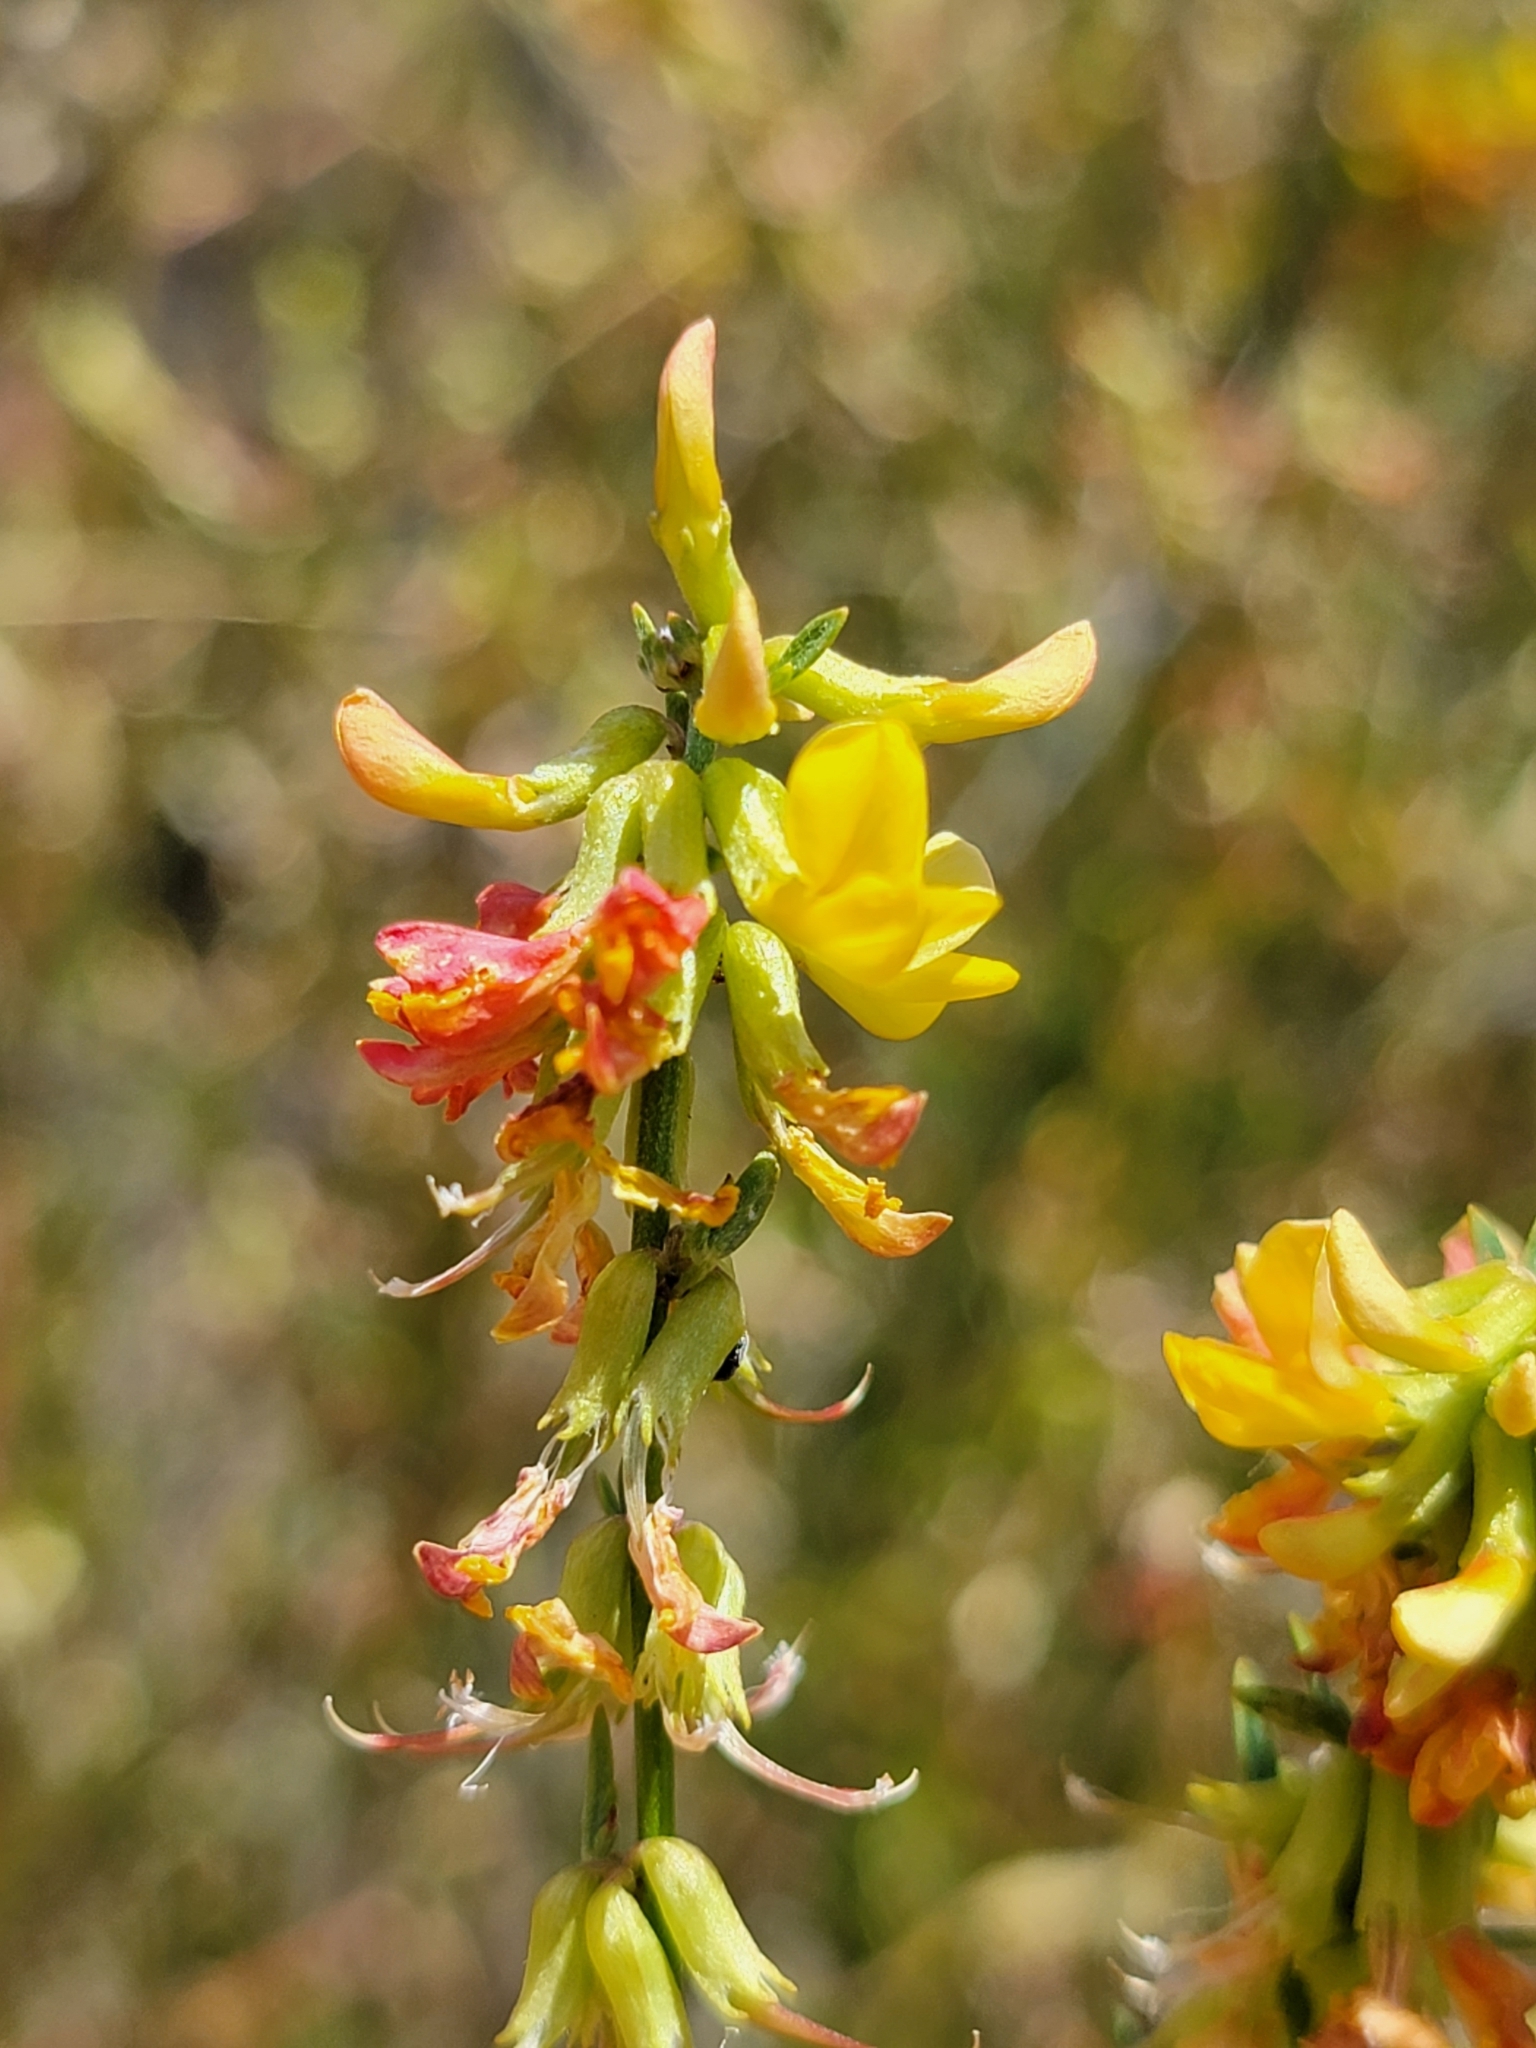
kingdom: Plantae
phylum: Tracheophyta
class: Magnoliopsida
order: Fabales
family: Fabaceae
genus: Acmispon
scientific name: Acmispon glaber
